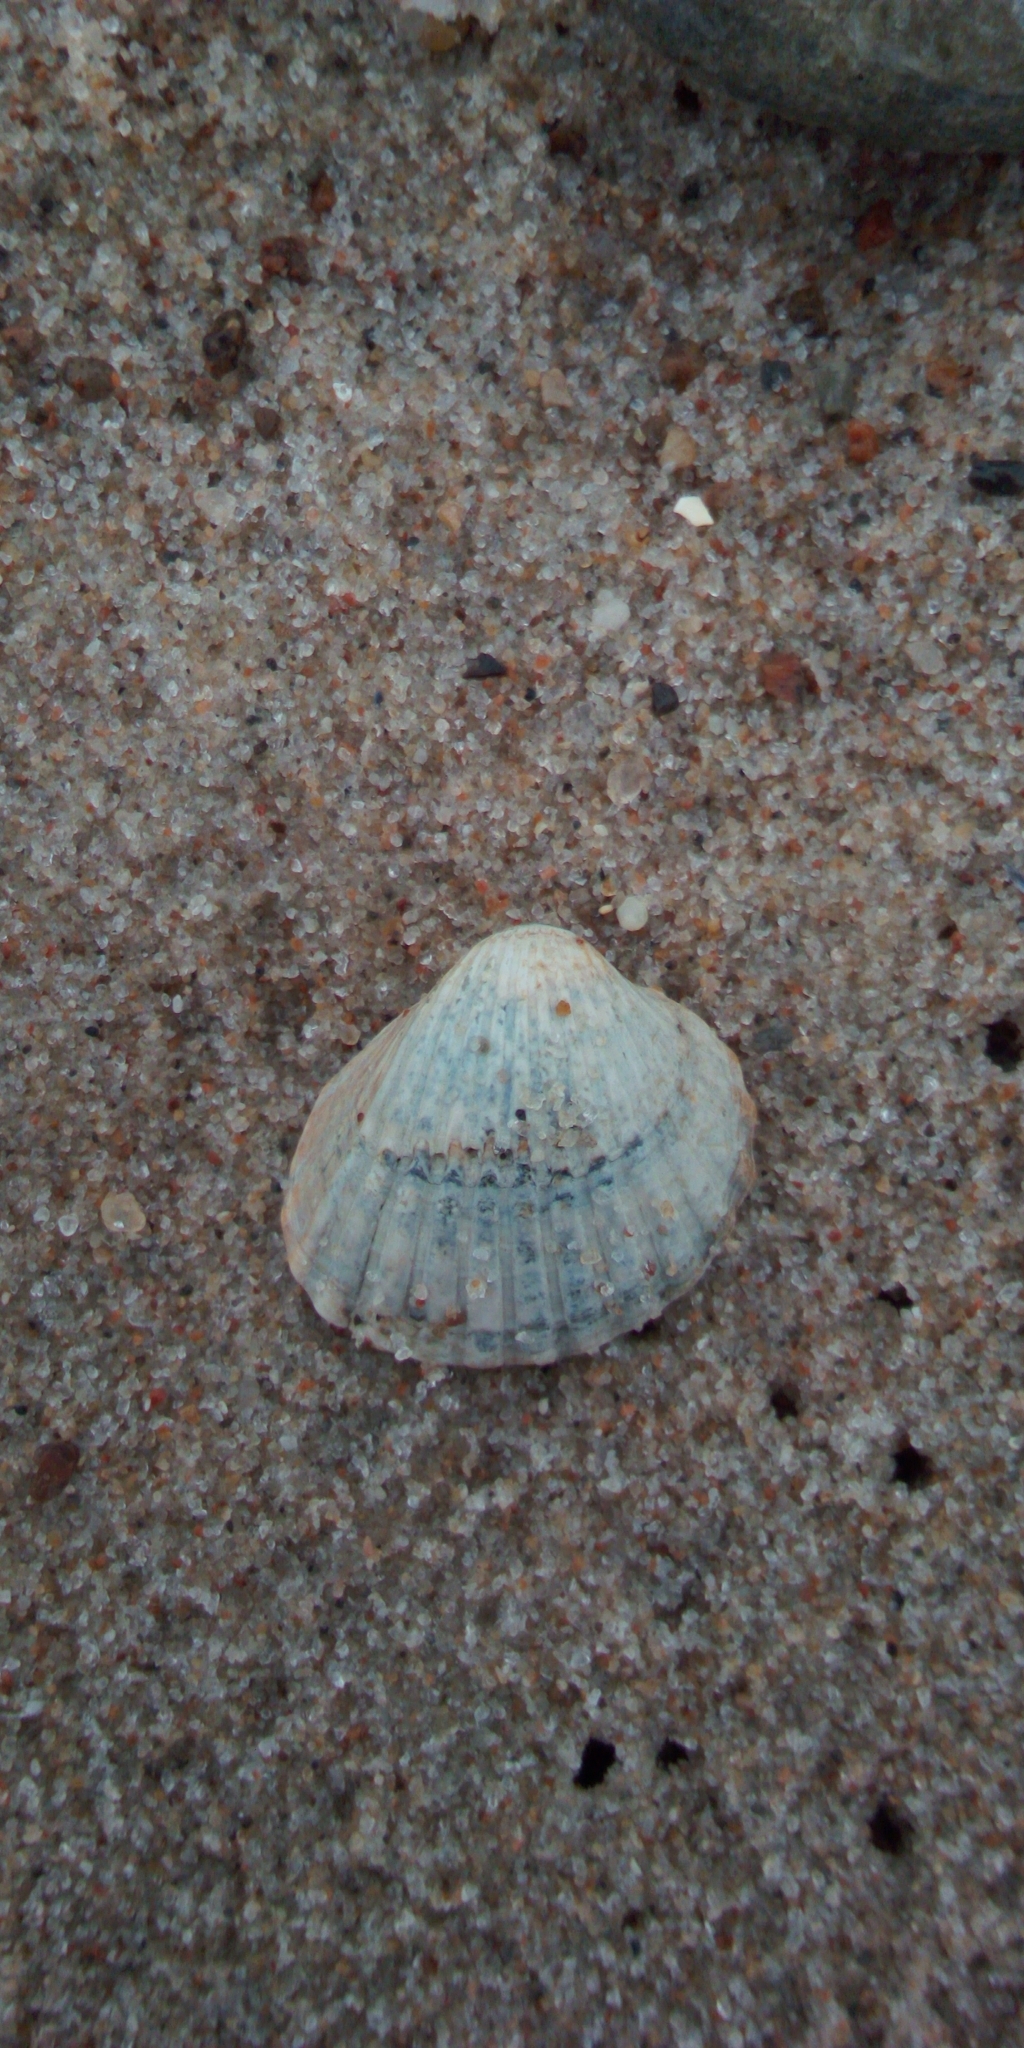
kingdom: Animalia
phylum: Mollusca
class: Bivalvia
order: Cardiida
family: Cardiidae
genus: Cerastoderma
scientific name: Cerastoderma glaucum
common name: Lagoon cockle
